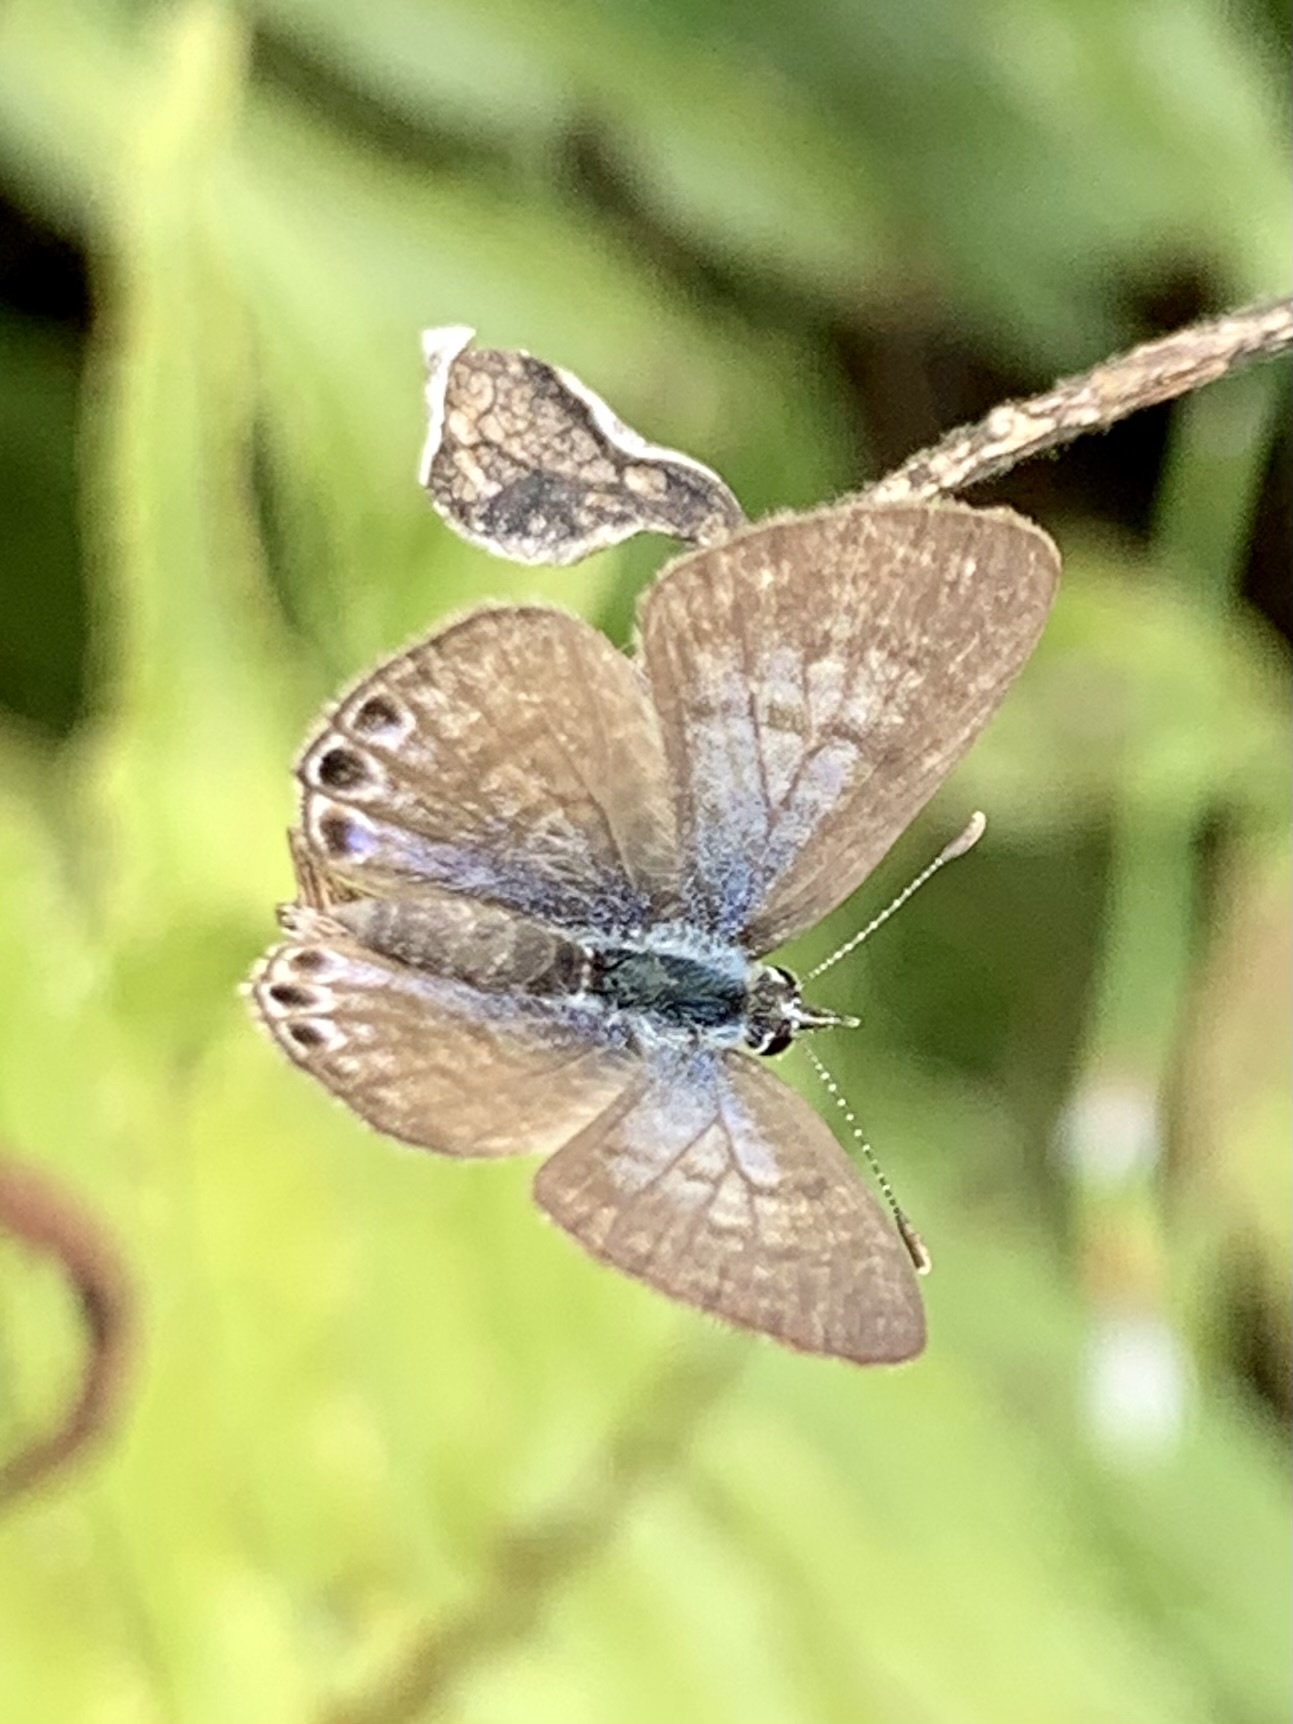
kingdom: Animalia
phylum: Arthropoda
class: Insecta
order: Lepidoptera
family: Lycaenidae
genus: Leptotes
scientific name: Leptotes
